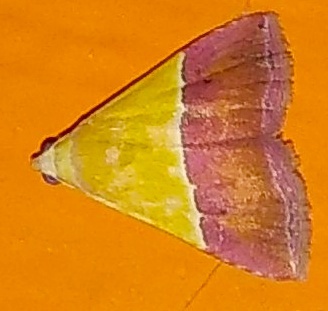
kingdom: Animalia
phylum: Arthropoda
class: Insecta
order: Lepidoptera
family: Noctuidae
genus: Eublemma
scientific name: Eublemma accedens
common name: Moth
